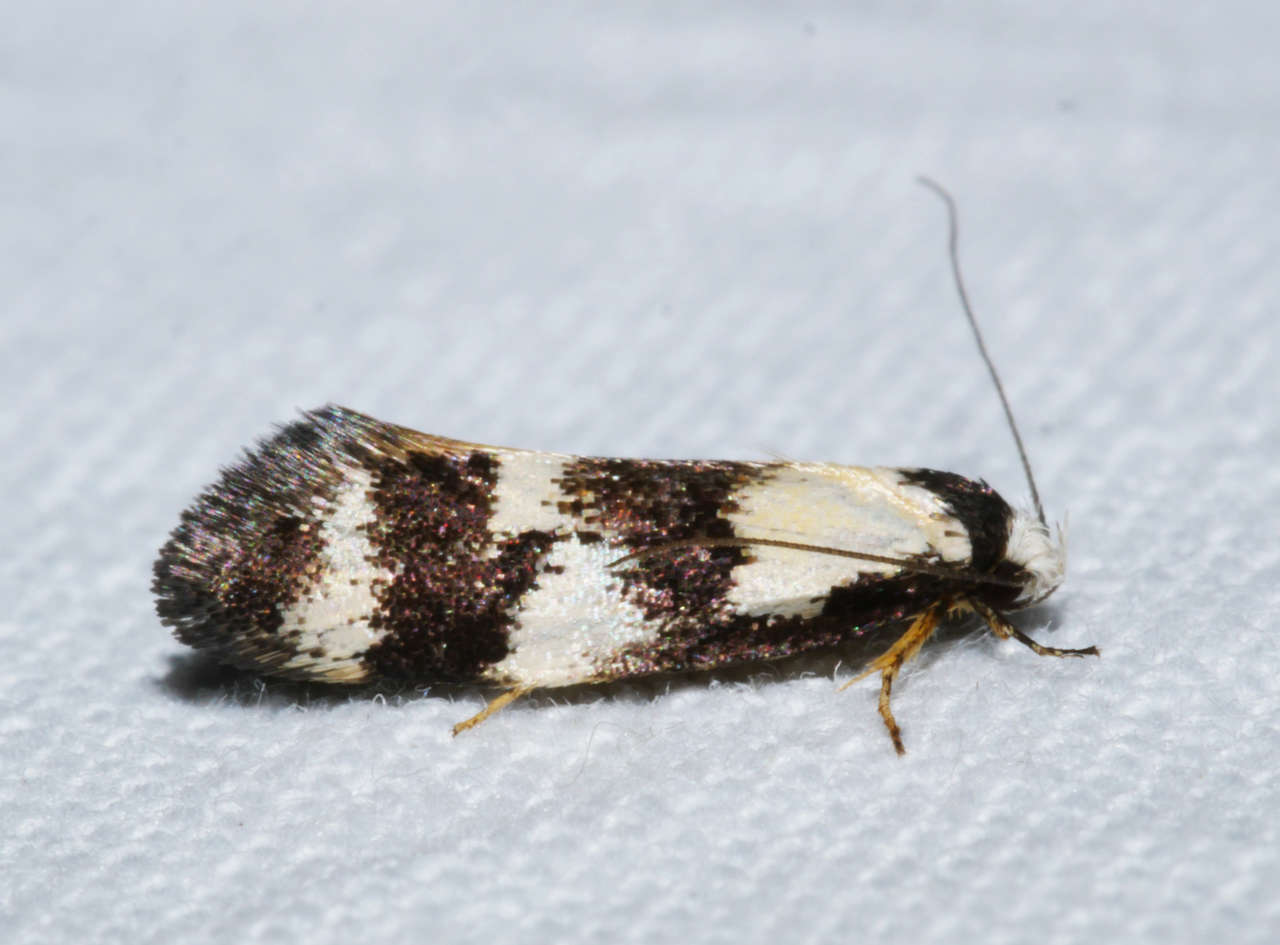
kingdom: Animalia
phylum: Arthropoda
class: Insecta
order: Lepidoptera
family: Oecophoridae
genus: Cosmaresta
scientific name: Cosmaresta archedora
